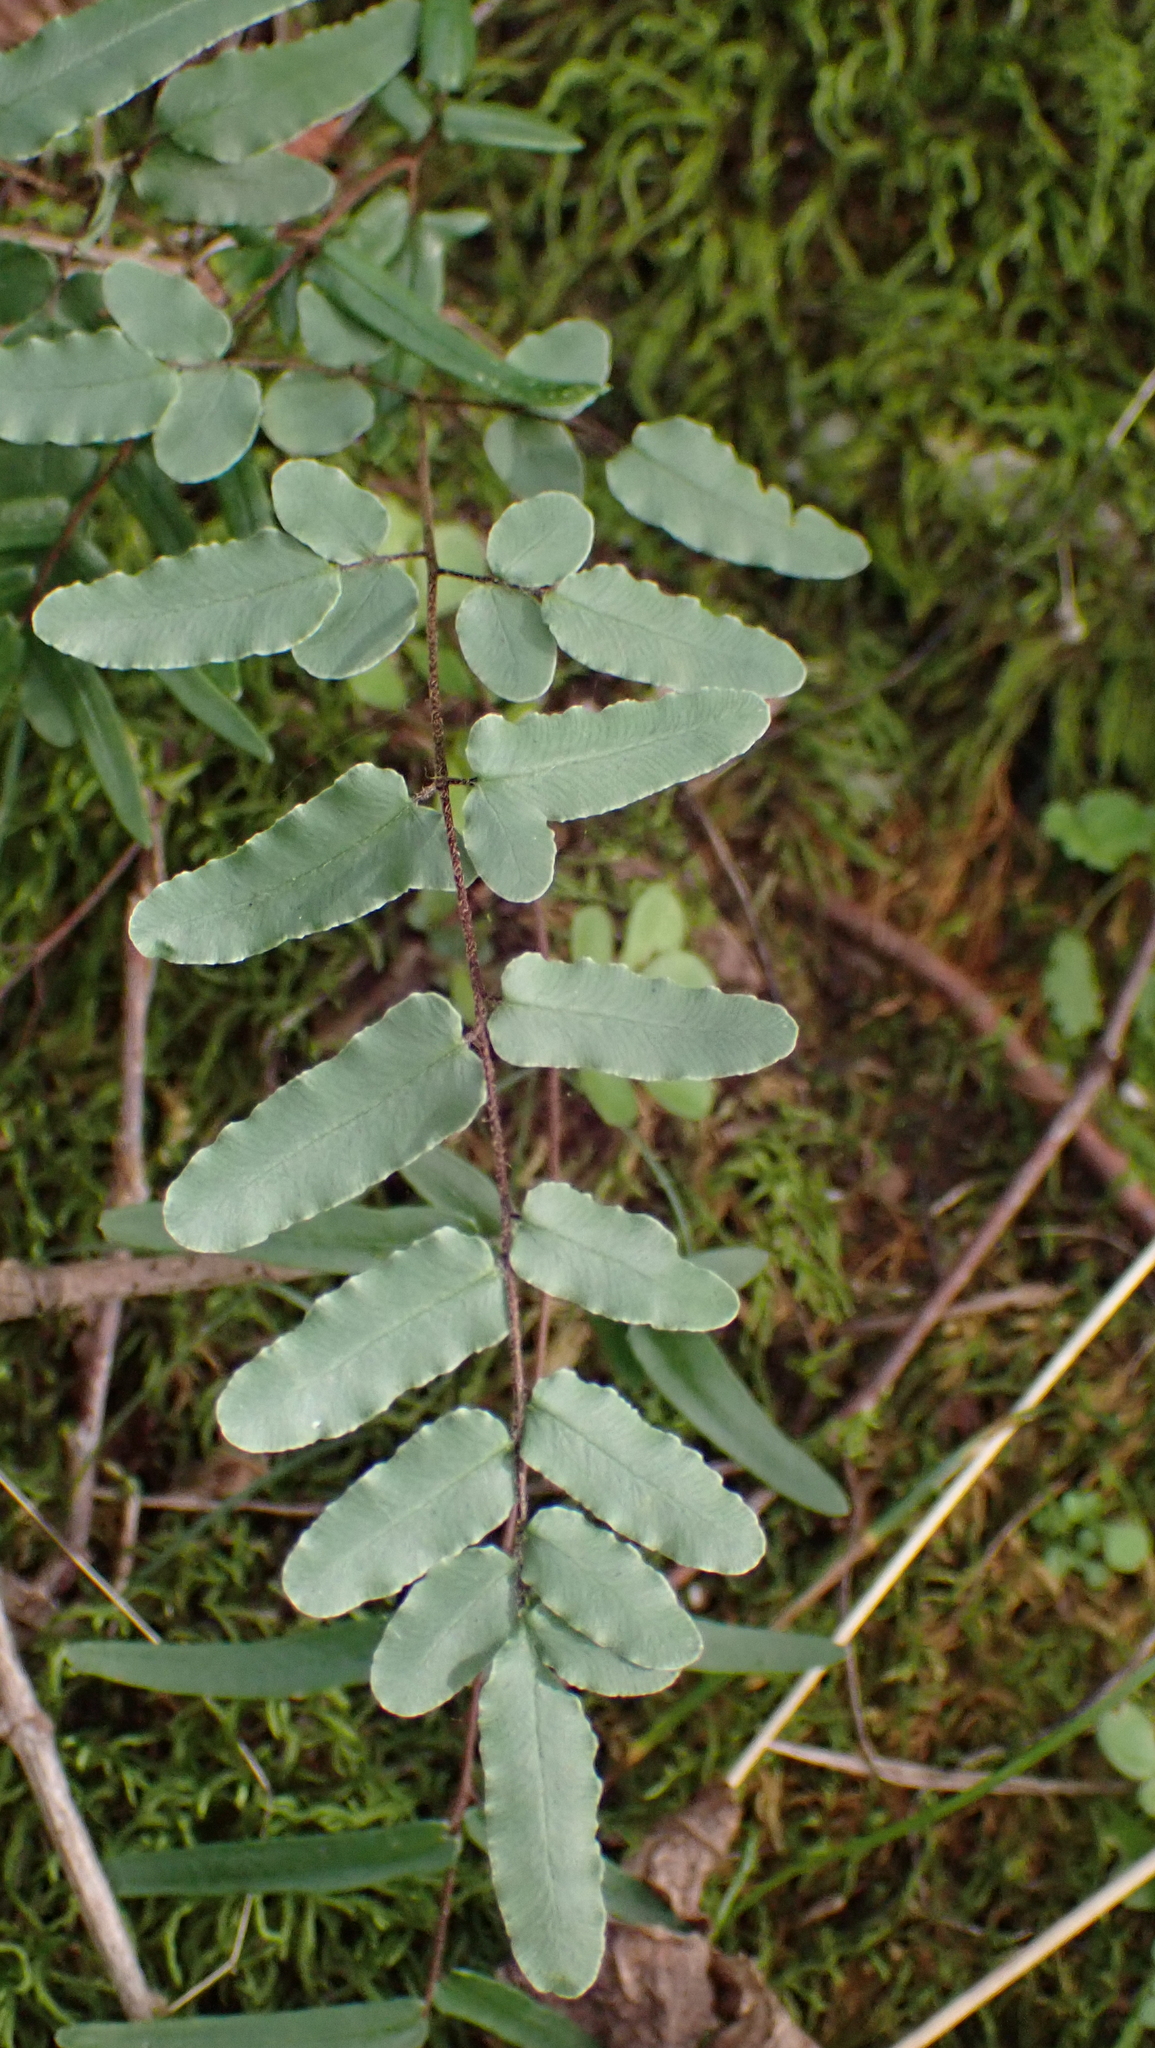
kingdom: Plantae
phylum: Tracheophyta
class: Polypodiopsida
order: Polypodiales
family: Pteridaceae
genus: Pellaea
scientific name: Pellaea atropurpurea
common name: Hairy cliffbrake
